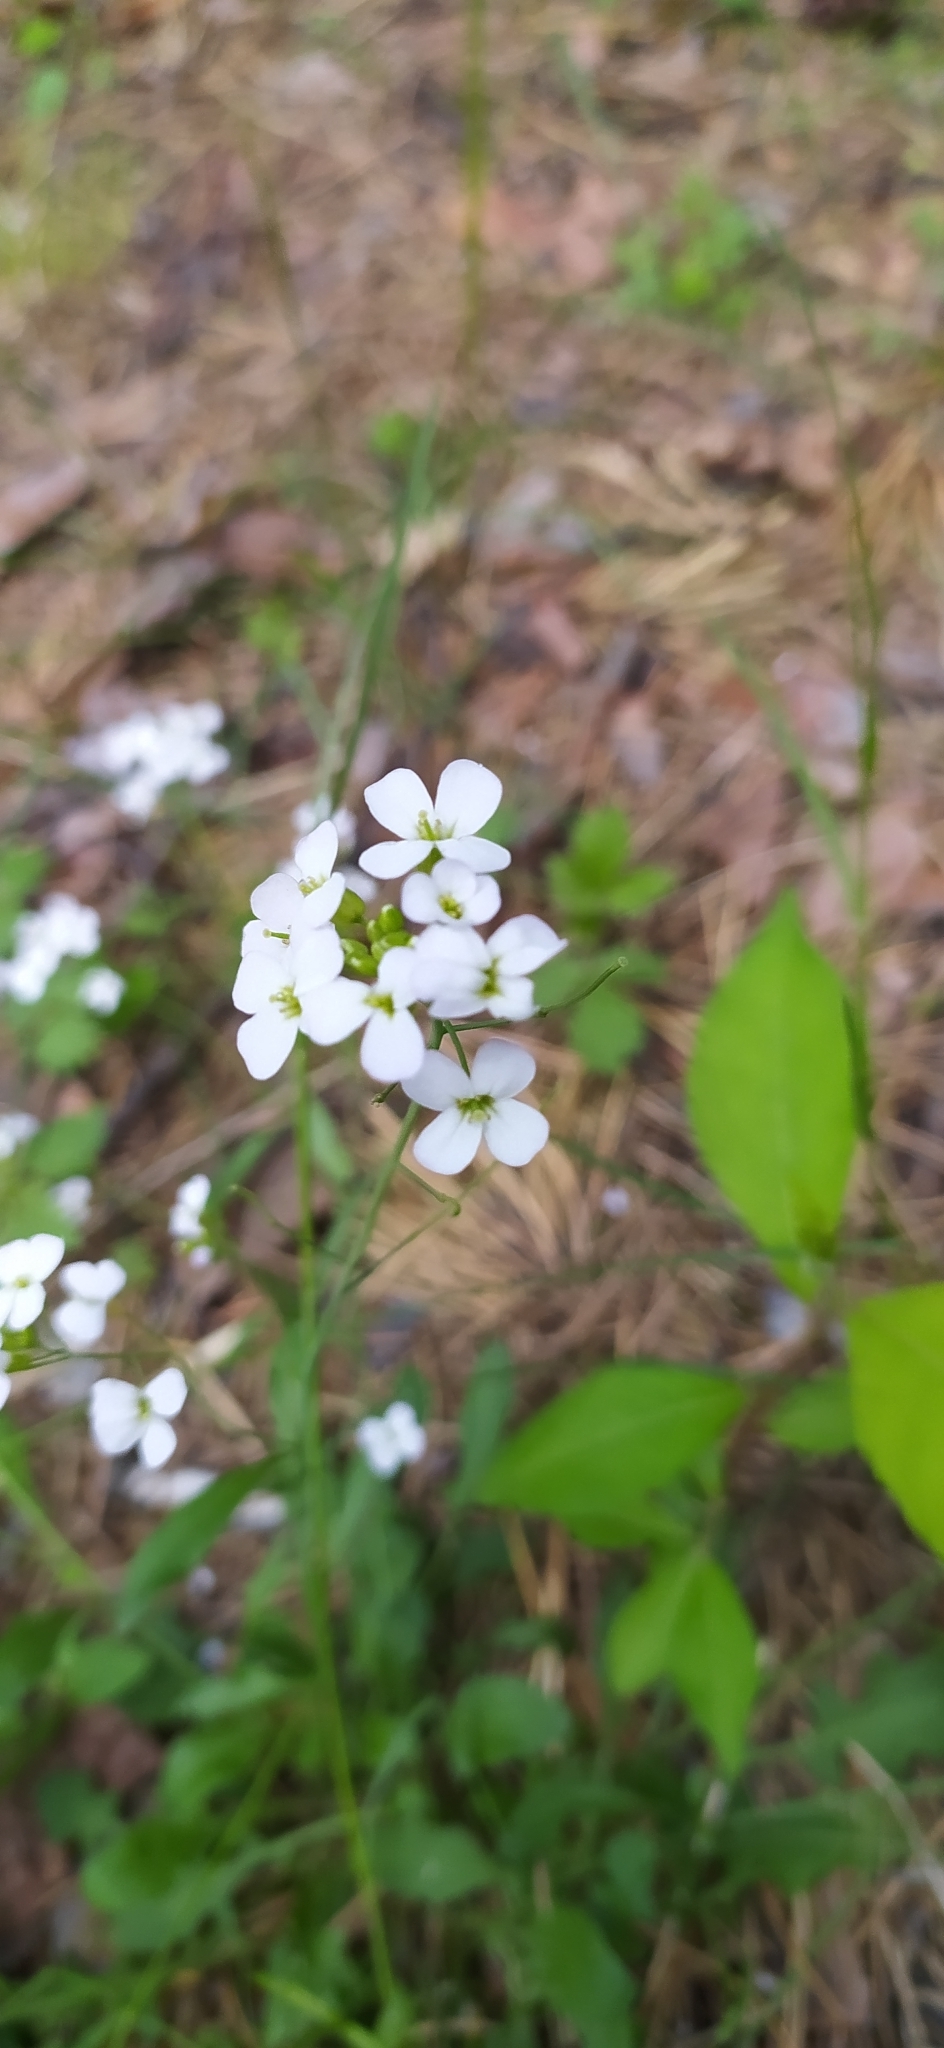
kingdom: Plantae
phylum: Tracheophyta
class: Magnoliopsida
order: Brassicales
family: Brassicaceae
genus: Arabidopsis
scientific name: Arabidopsis arenosa
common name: Sand rock-cress
